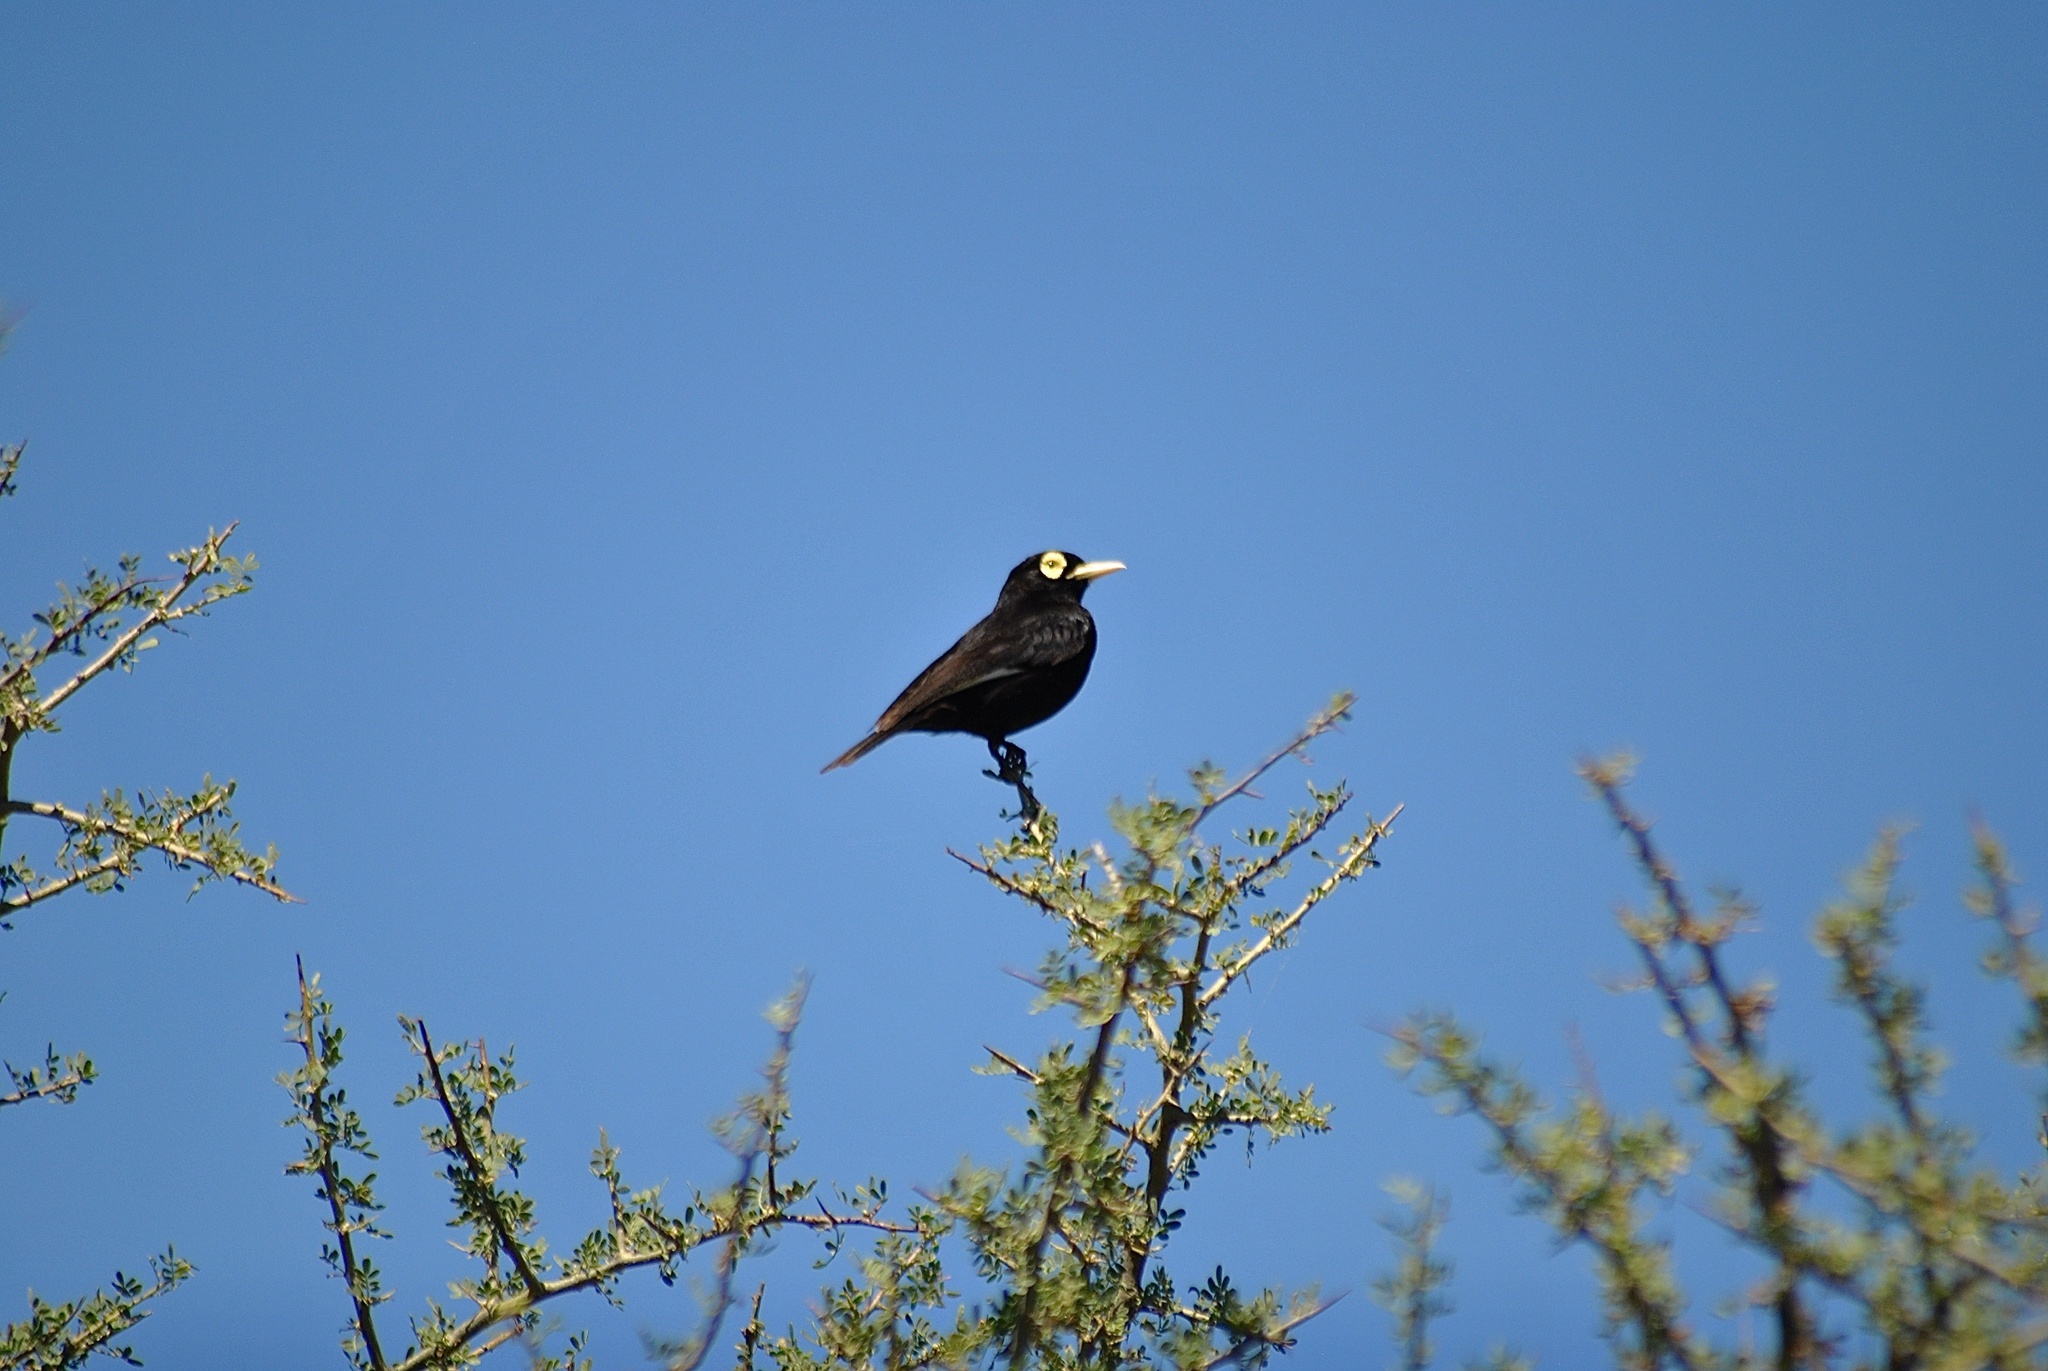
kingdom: Animalia
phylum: Chordata
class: Aves
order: Passeriformes
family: Tyrannidae
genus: Hymenops
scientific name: Hymenops perspicillatus
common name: Spectacled tyrant
